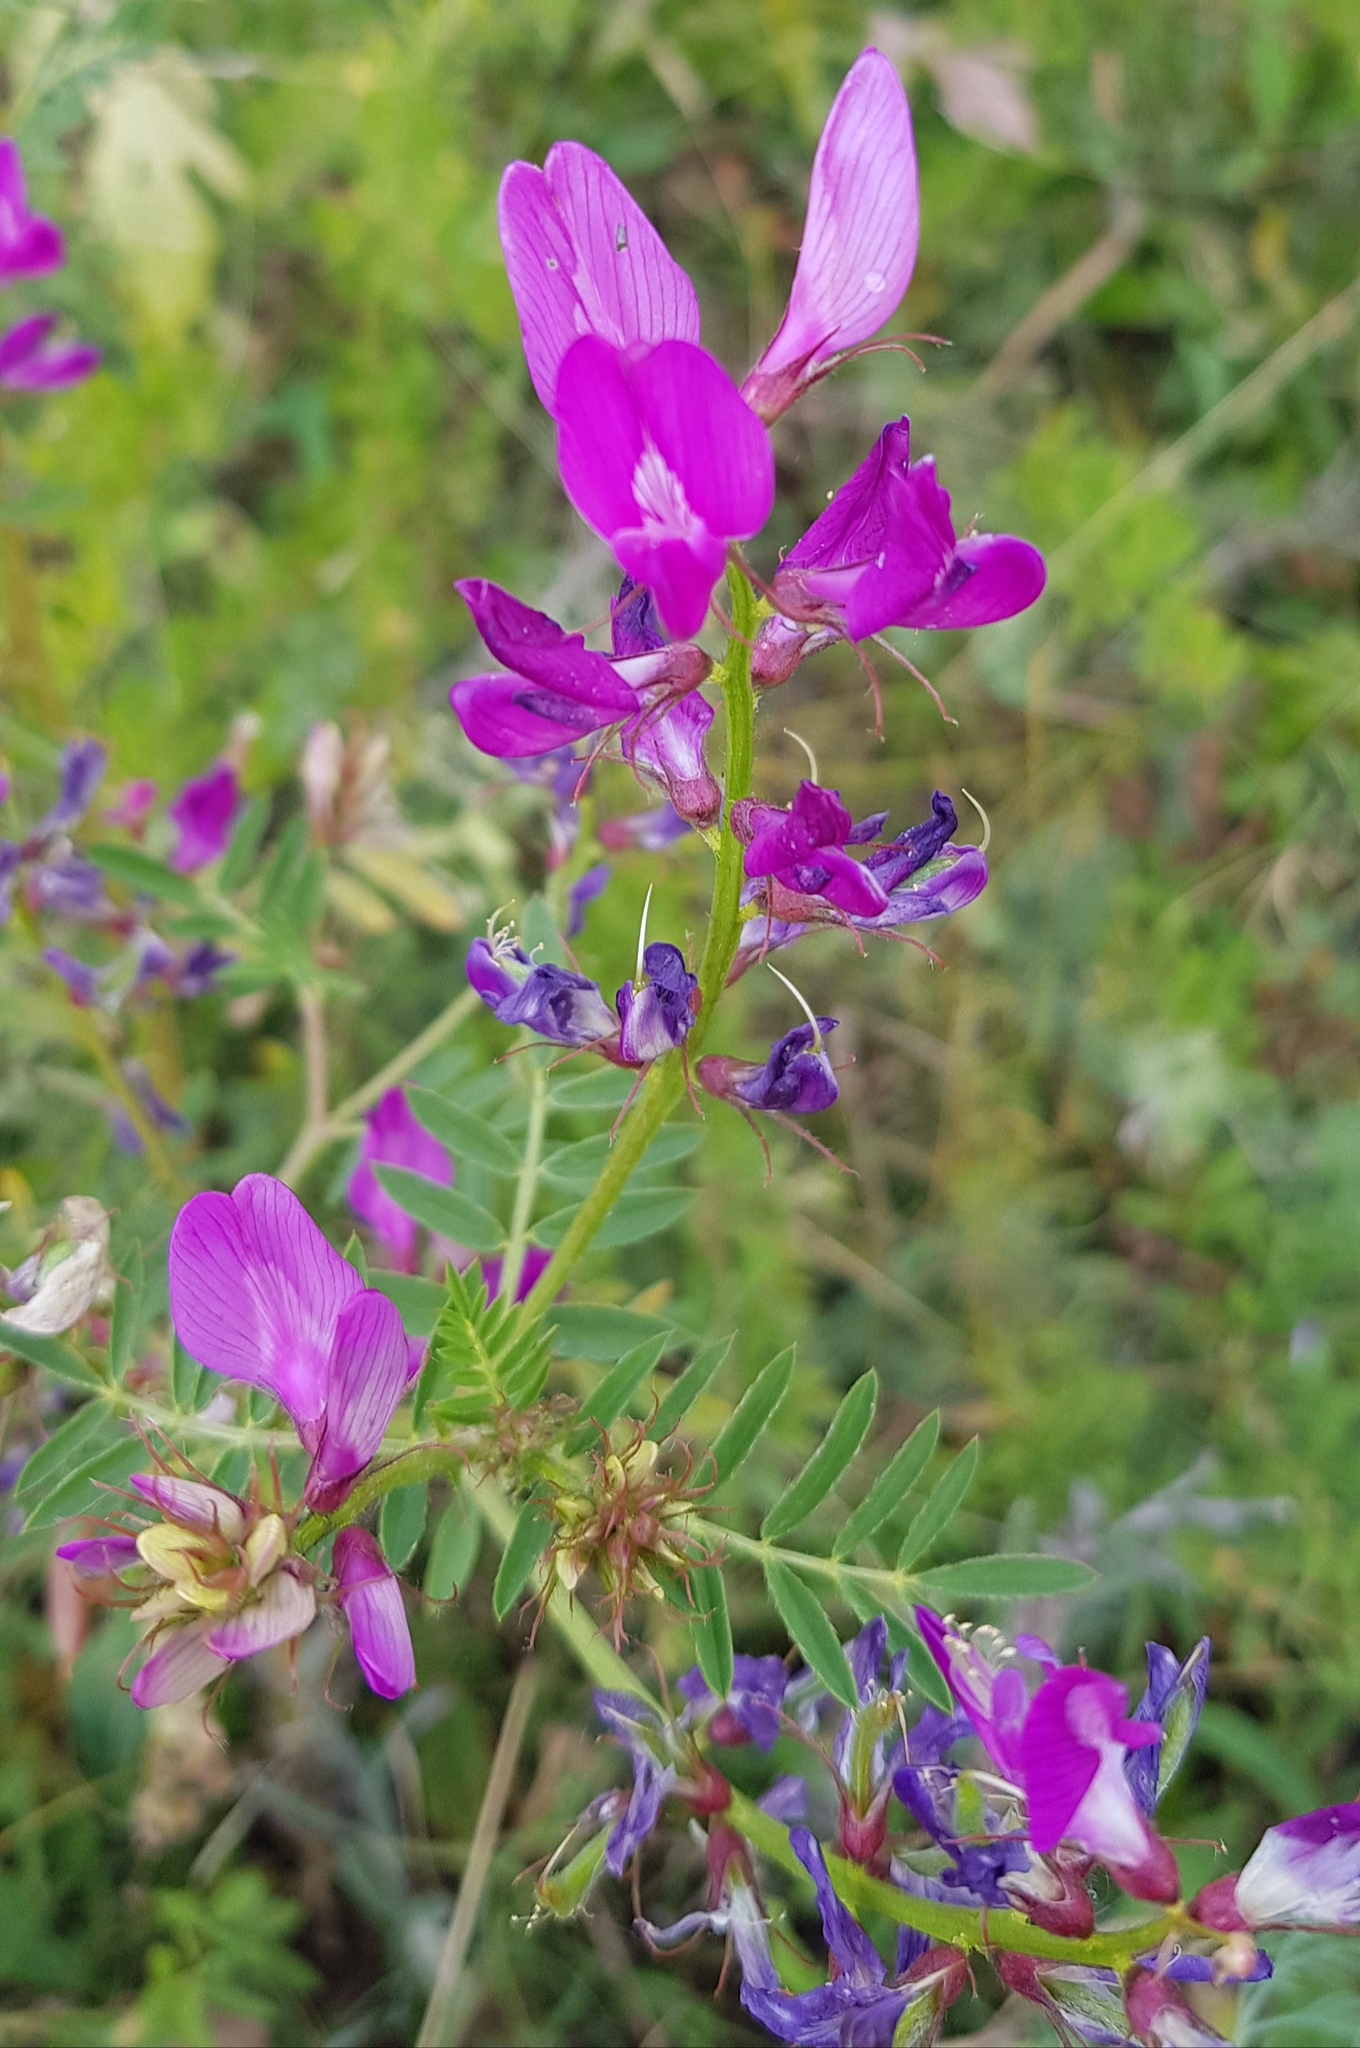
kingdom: Plantae
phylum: Tracheophyta
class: Magnoliopsida
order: Fabales
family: Fabaceae
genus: Astragalus
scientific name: Astragalus davuricus
